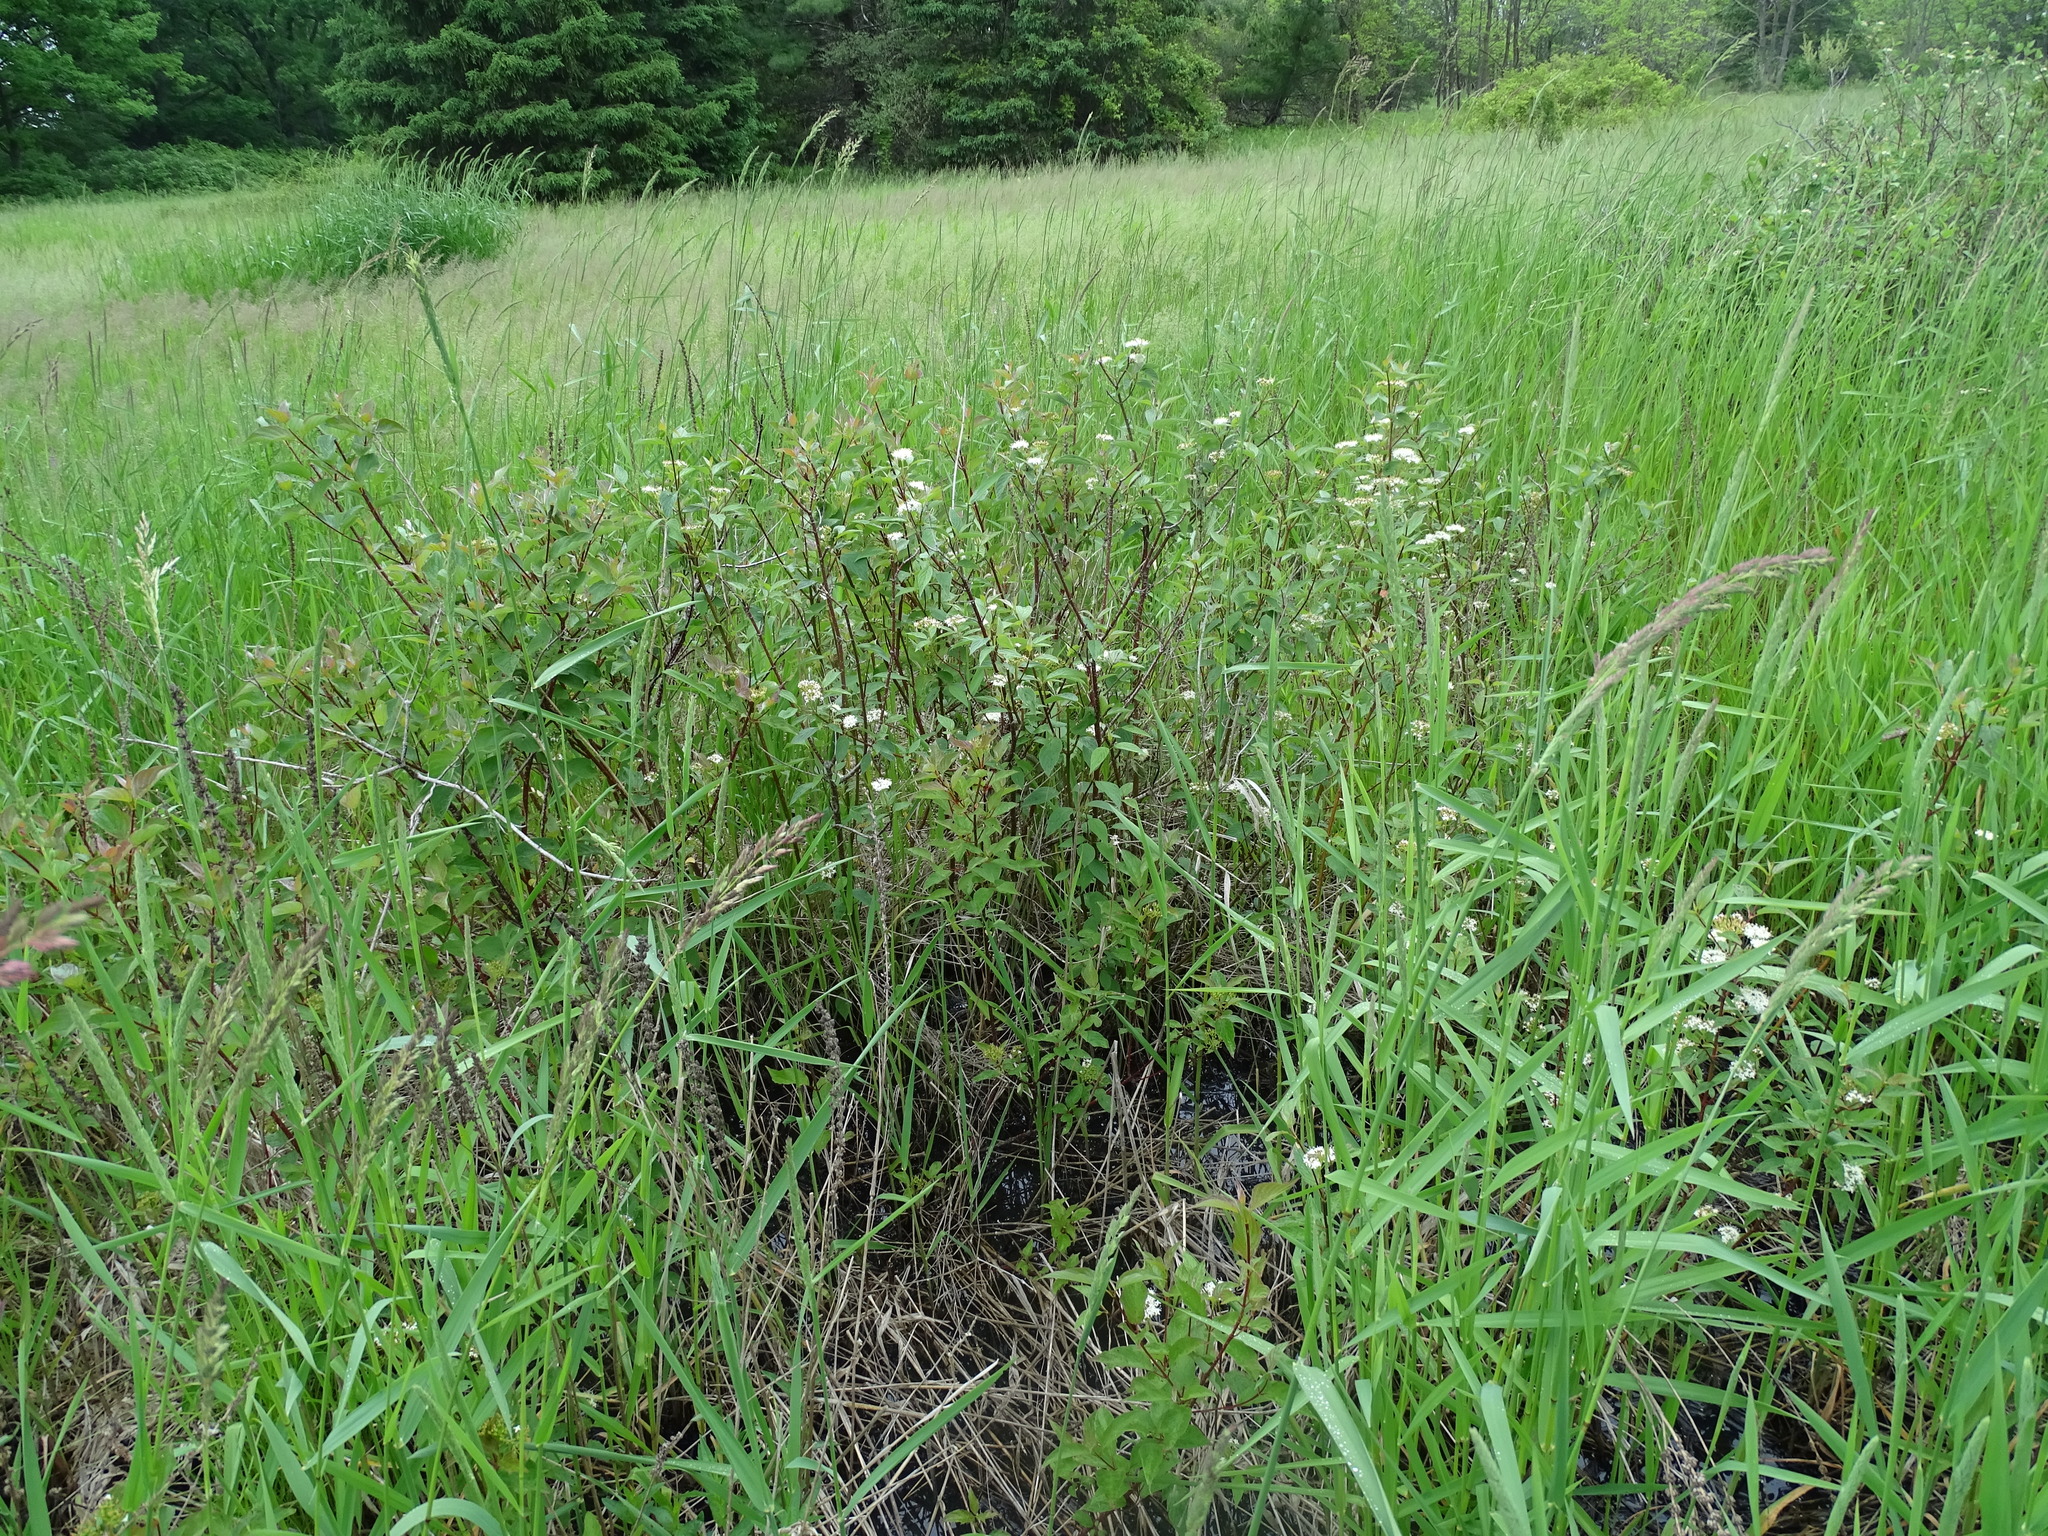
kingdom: Plantae
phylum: Tracheophyta
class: Magnoliopsida
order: Cornales
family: Cornaceae
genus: Cornus
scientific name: Cornus sericea
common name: Red-osier dogwood
